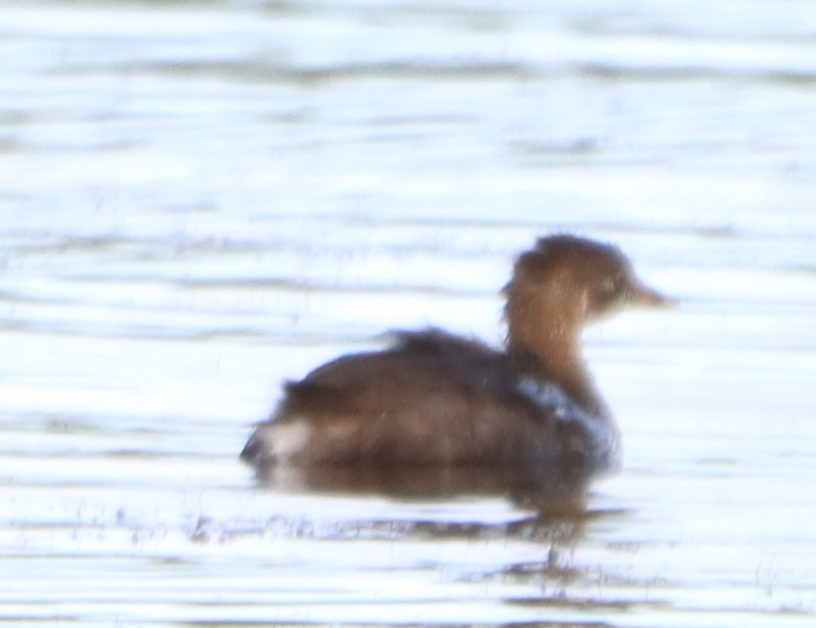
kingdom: Animalia
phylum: Chordata
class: Aves
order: Podicipediformes
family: Podicipedidae
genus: Podiceps
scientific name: Podiceps nigricollis
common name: Black-necked grebe
